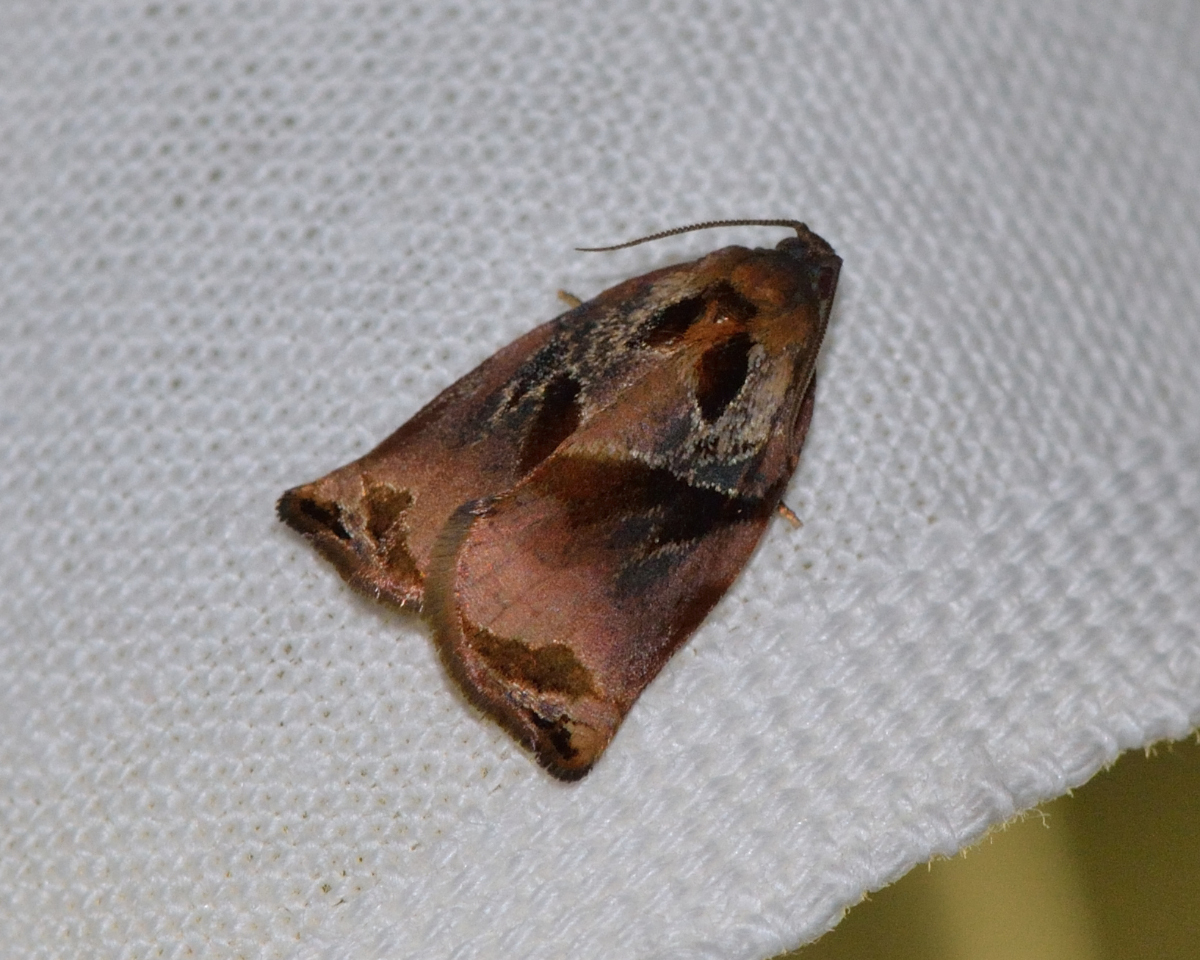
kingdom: Animalia
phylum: Arthropoda
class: Insecta
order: Lepidoptera
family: Tortricidae
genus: Archips
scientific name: Archips podana
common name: Large fruit-tree tortrix
